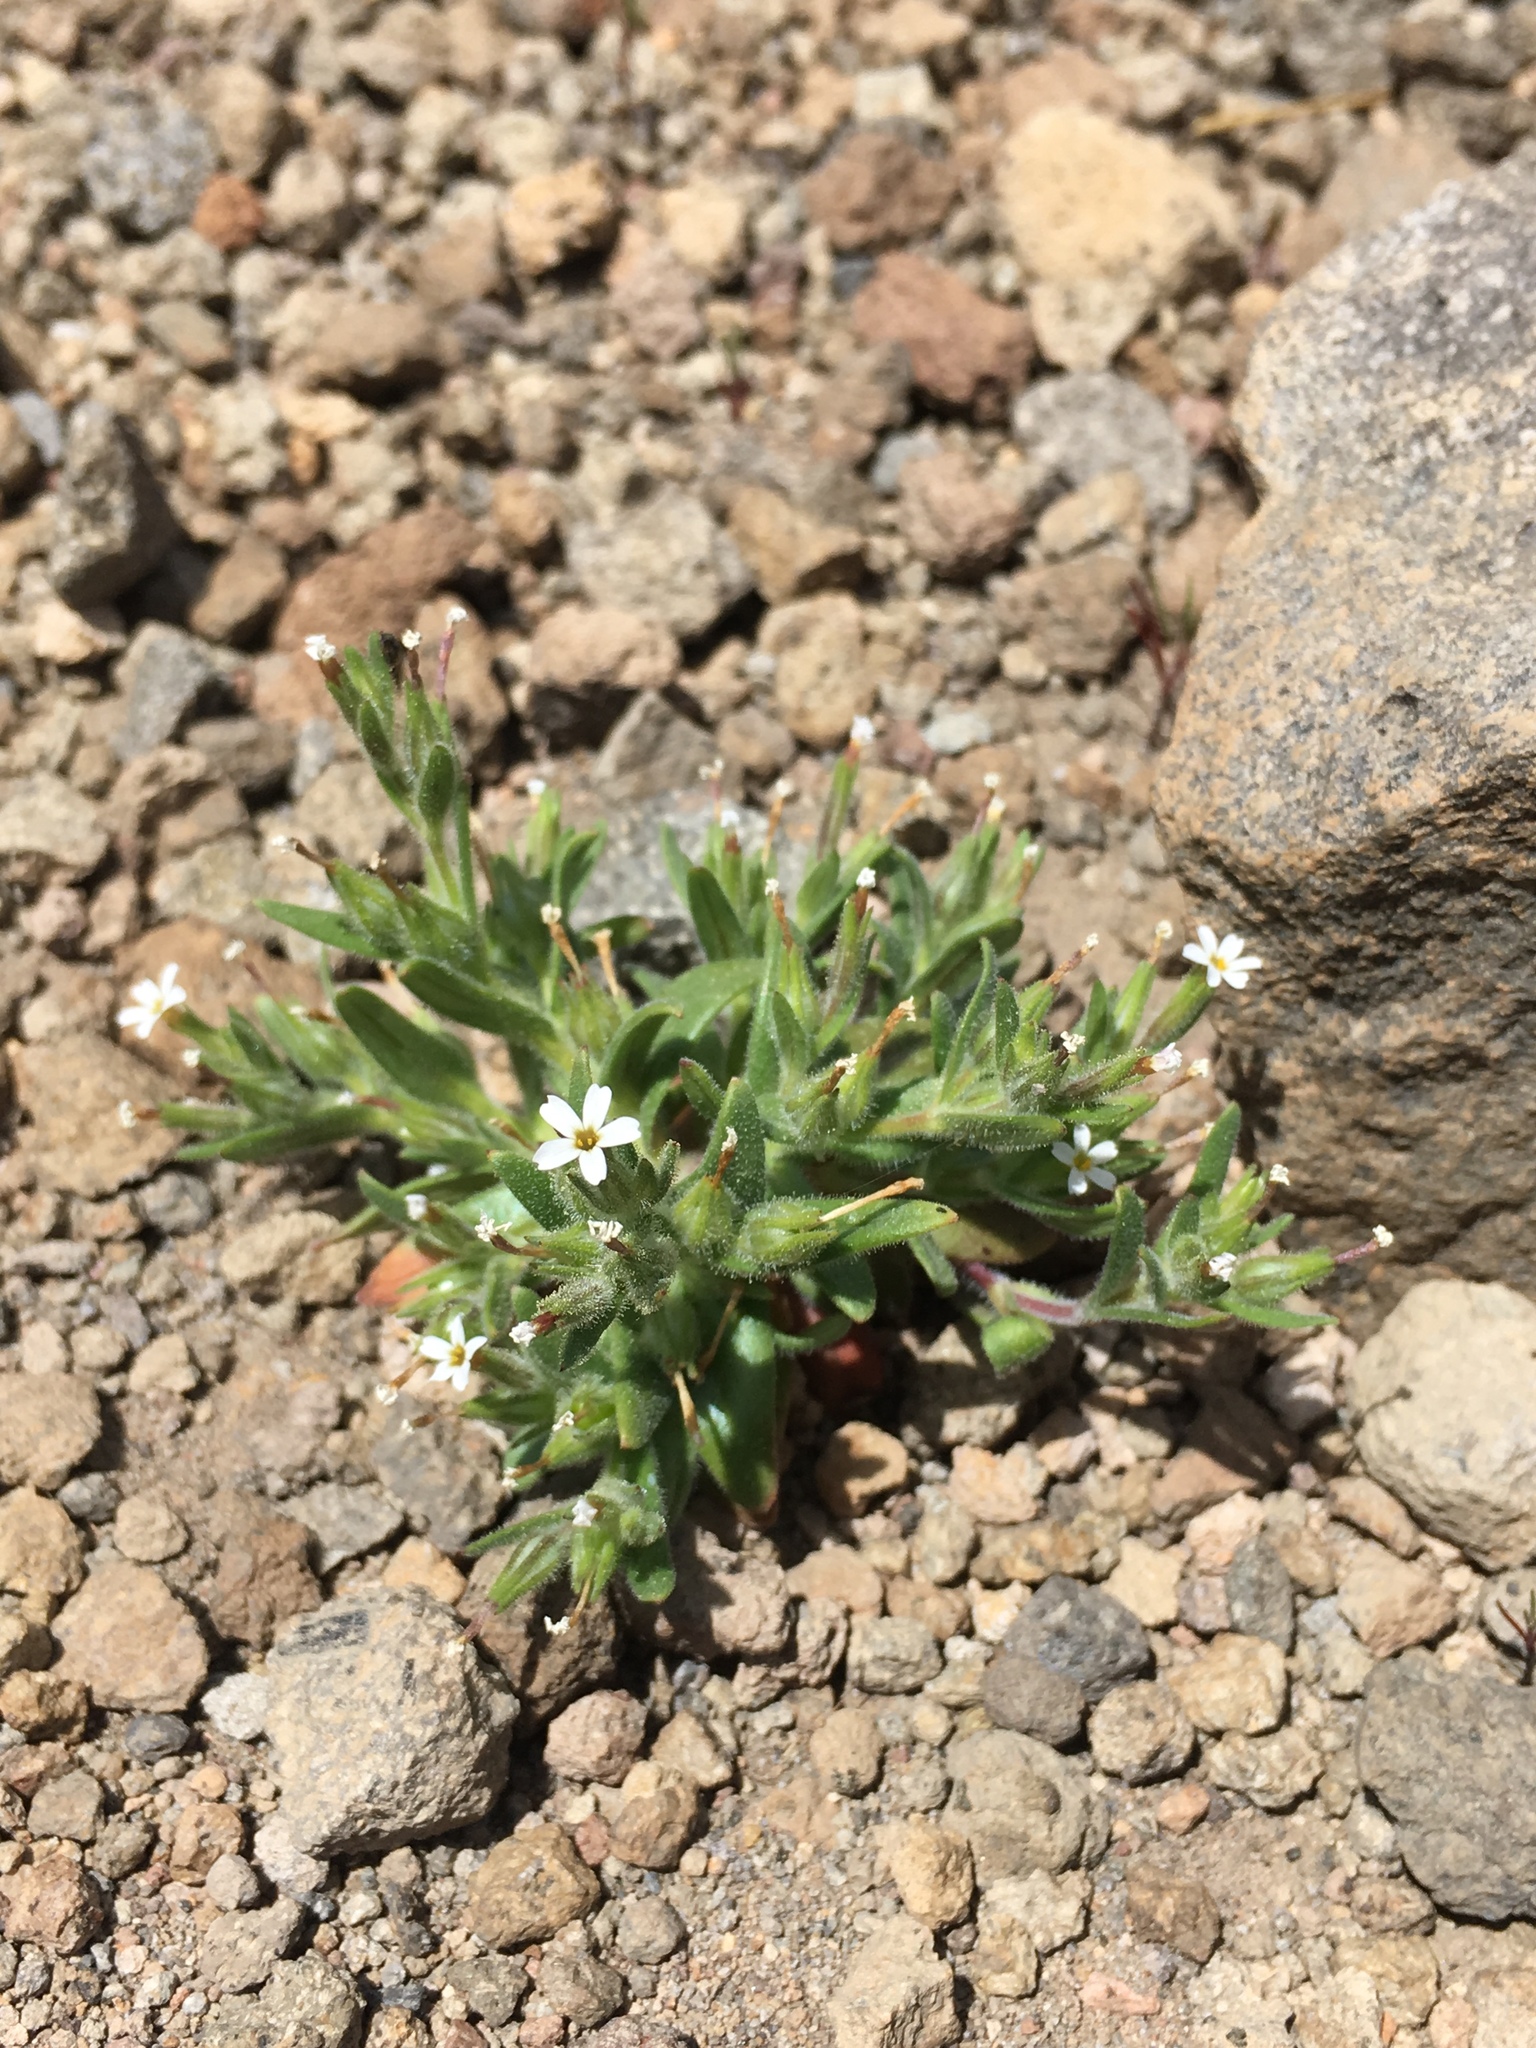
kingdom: Plantae
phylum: Tracheophyta
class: Magnoliopsida
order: Ericales
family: Polemoniaceae
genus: Phlox
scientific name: Phlox gracilis
